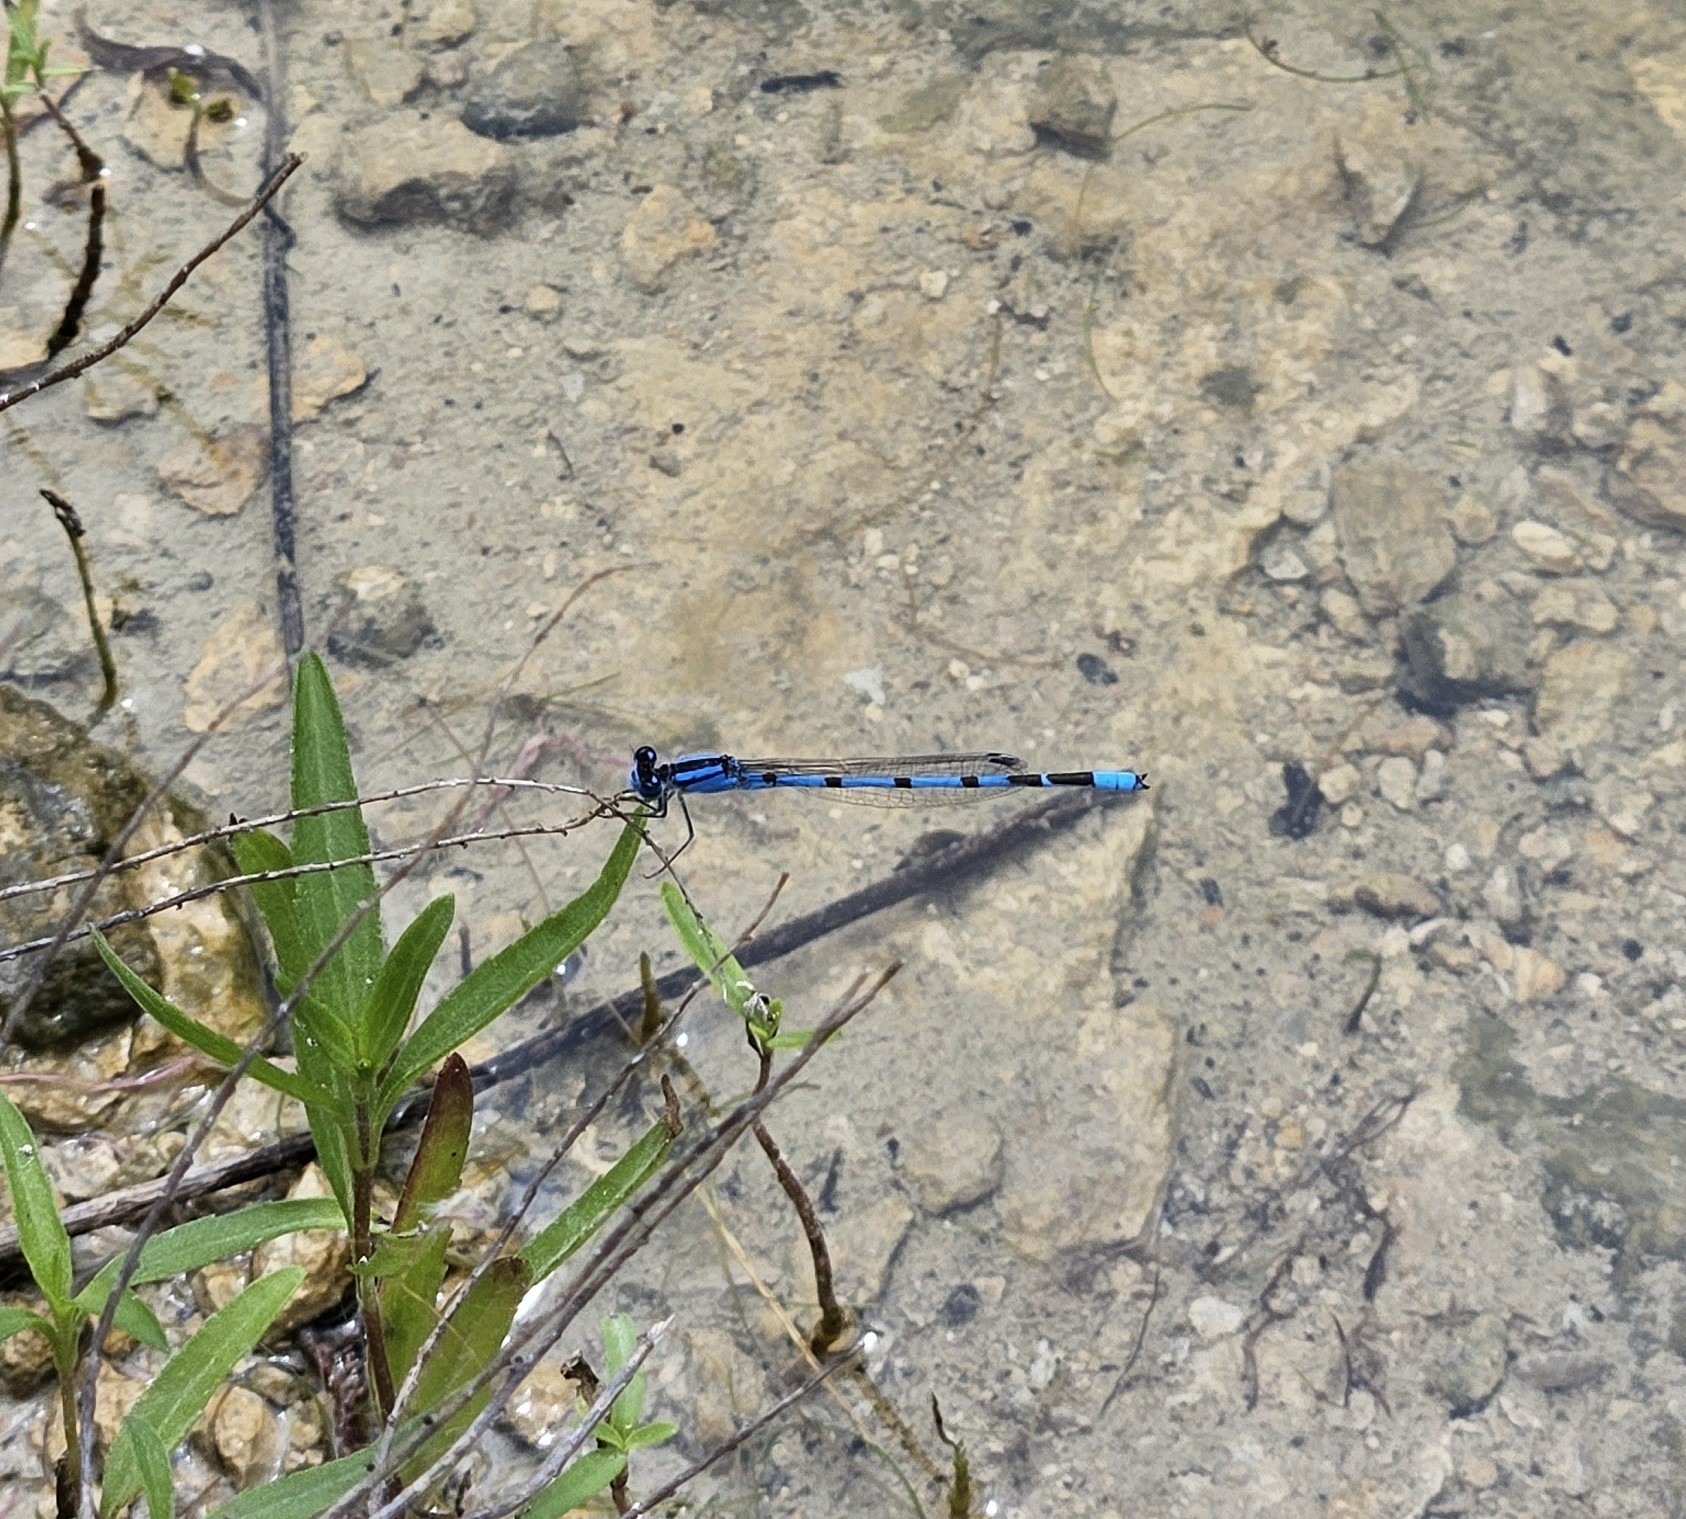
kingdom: Animalia
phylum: Arthropoda
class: Insecta
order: Odonata
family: Coenagrionidae
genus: Enallagma
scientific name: Enallagma civile
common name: Damselfly
